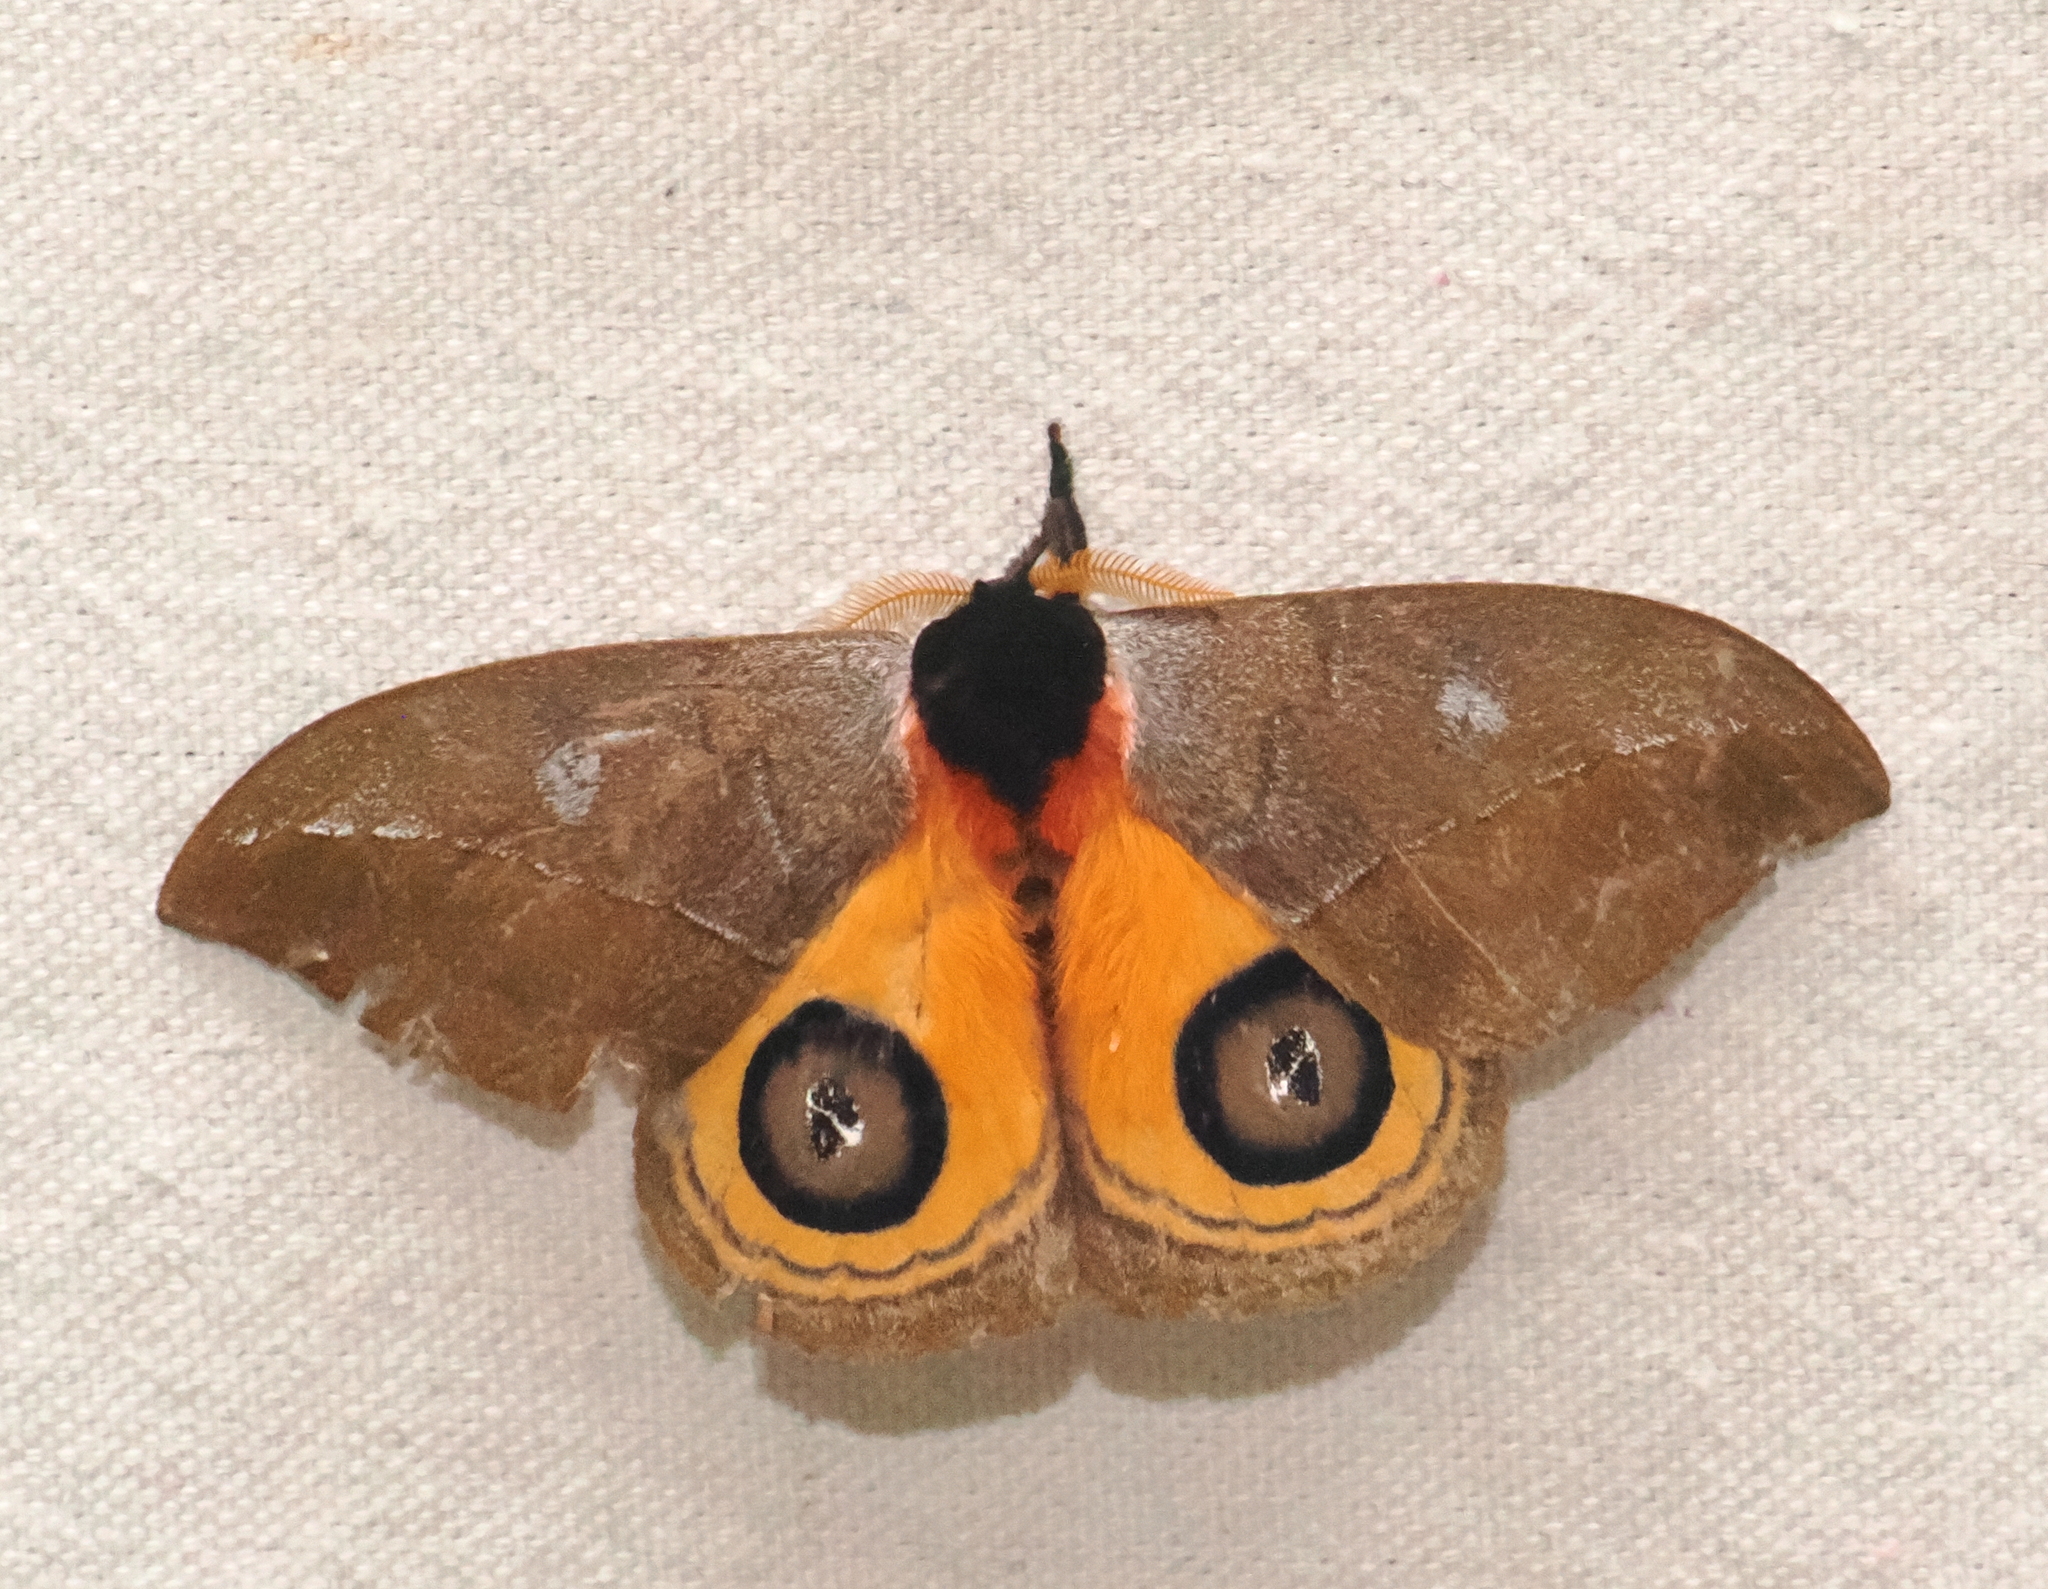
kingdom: Animalia
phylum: Arthropoda
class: Insecta
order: Lepidoptera
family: Saturniidae
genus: Automeris
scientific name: Automeris argentifera
